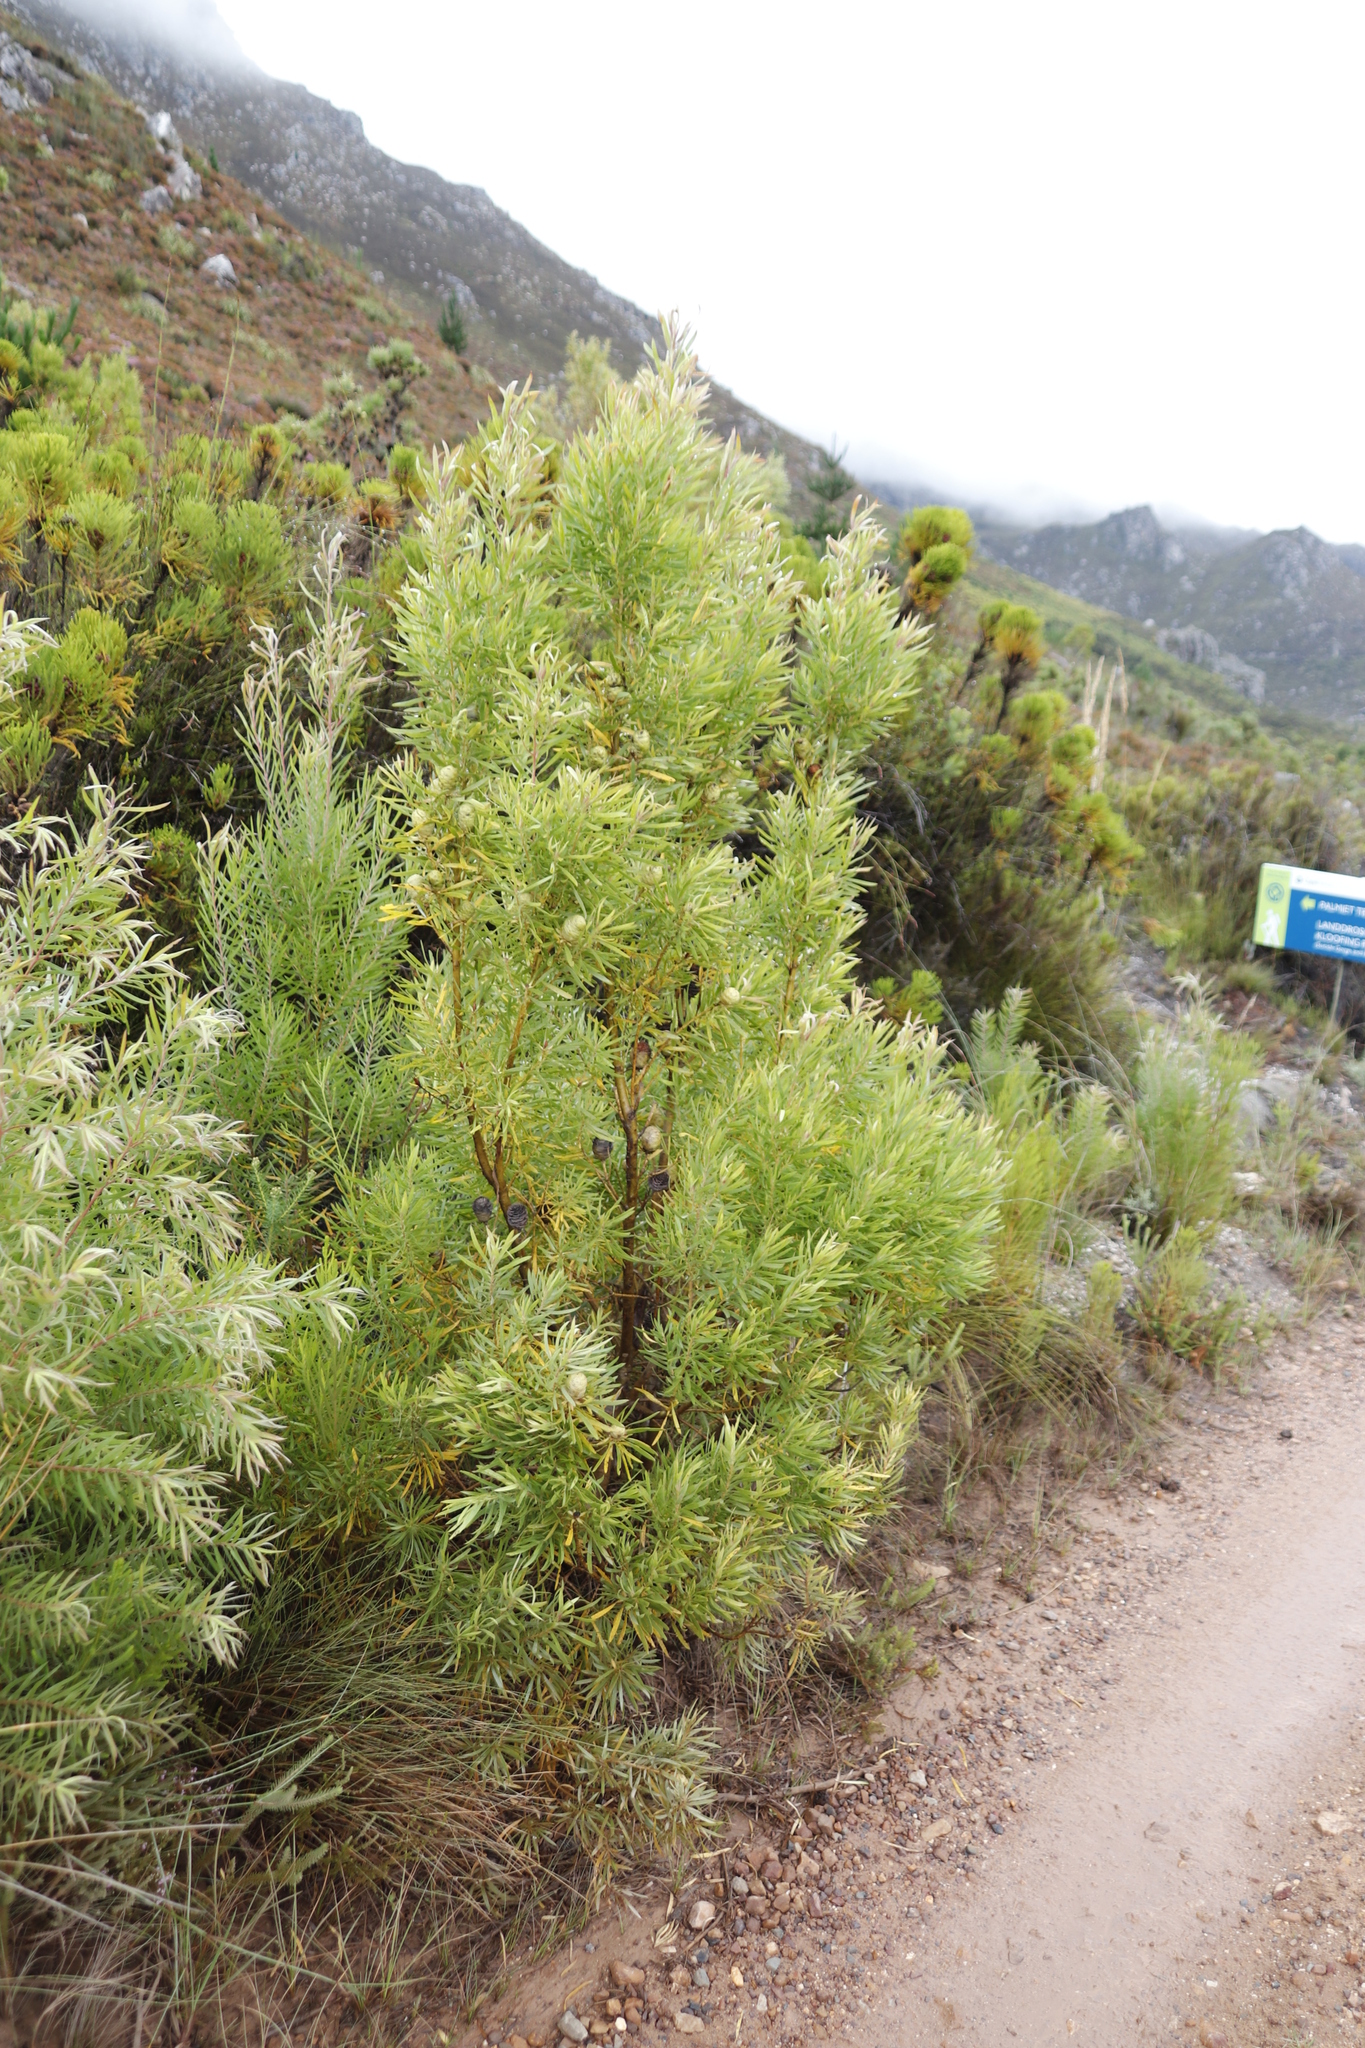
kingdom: Plantae
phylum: Tracheophyta
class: Magnoliopsida
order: Proteales
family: Proteaceae
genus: Leucadendron
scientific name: Leucadendron salicifolium
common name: Common stream conebush
